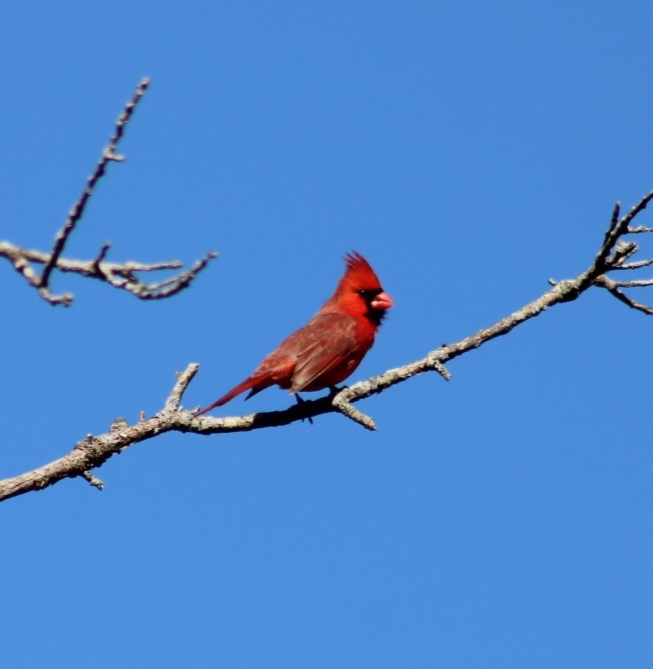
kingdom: Animalia
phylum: Chordata
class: Aves
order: Passeriformes
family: Cardinalidae
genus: Cardinalis
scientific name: Cardinalis cardinalis
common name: Northern cardinal
